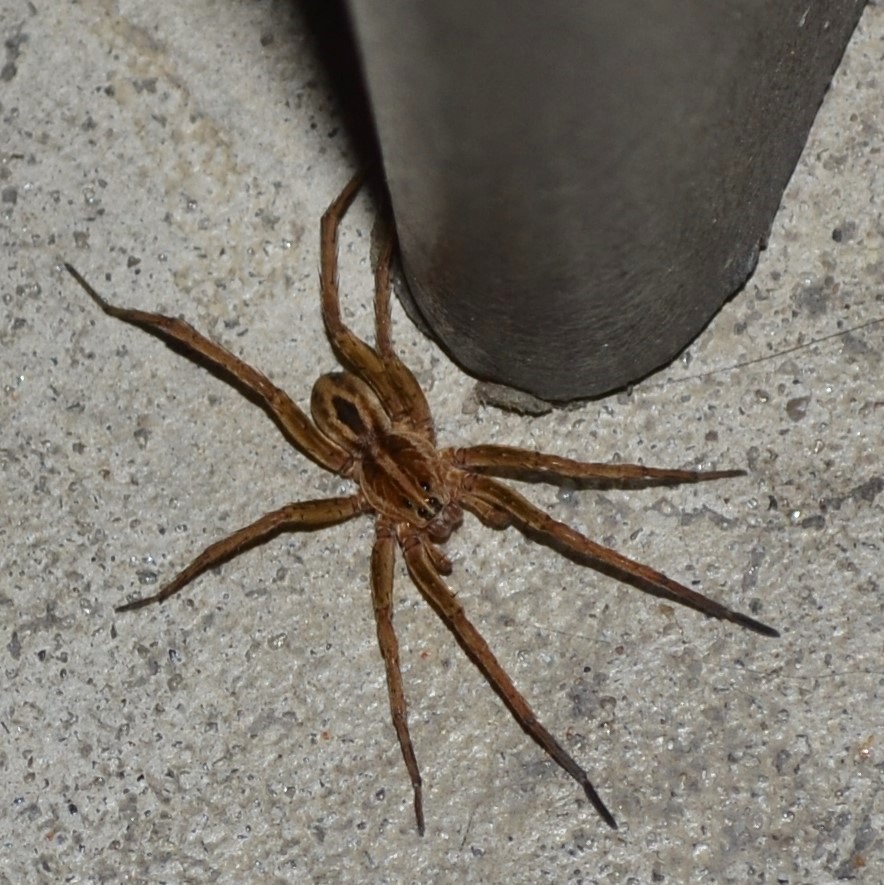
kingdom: Animalia
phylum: Arthropoda
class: Arachnida
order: Araneae
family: Lycosidae
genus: Tigrosa
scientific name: Tigrosa annexa
